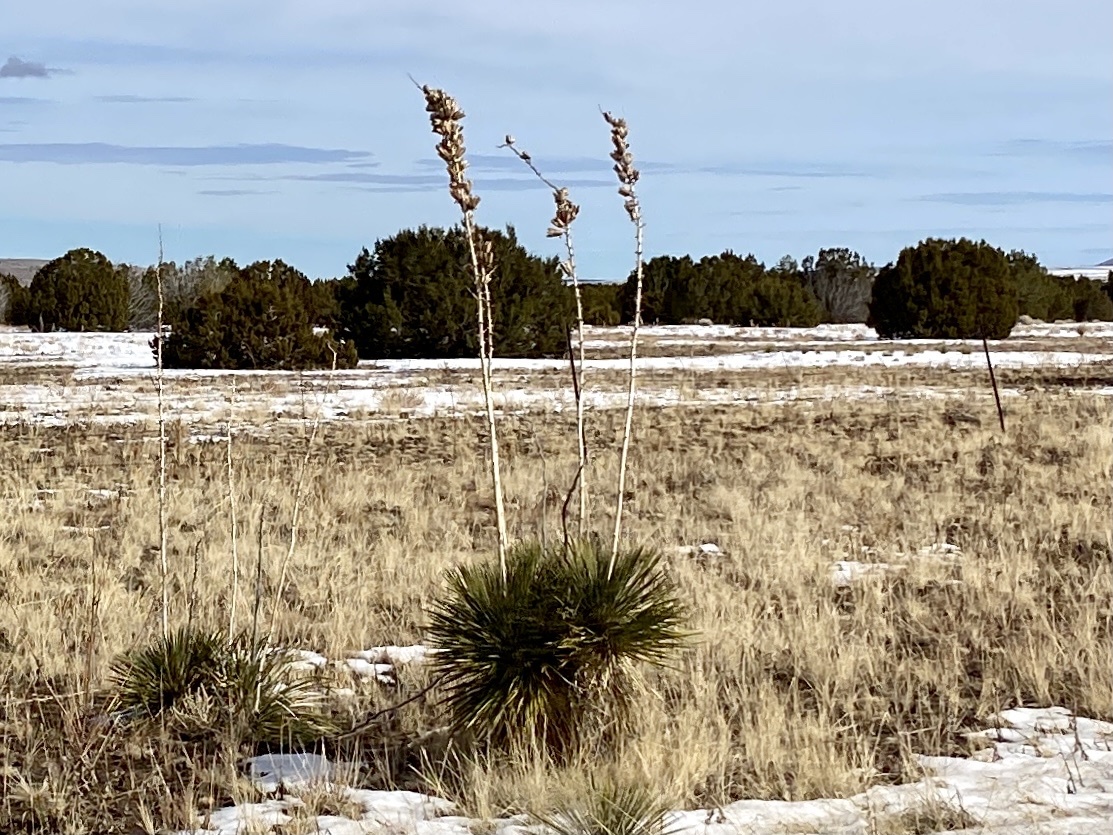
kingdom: Plantae
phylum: Tracheophyta
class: Liliopsida
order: Asparagales
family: Asparagaceae
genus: Yucca
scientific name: Yucca elata
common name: Palmella
